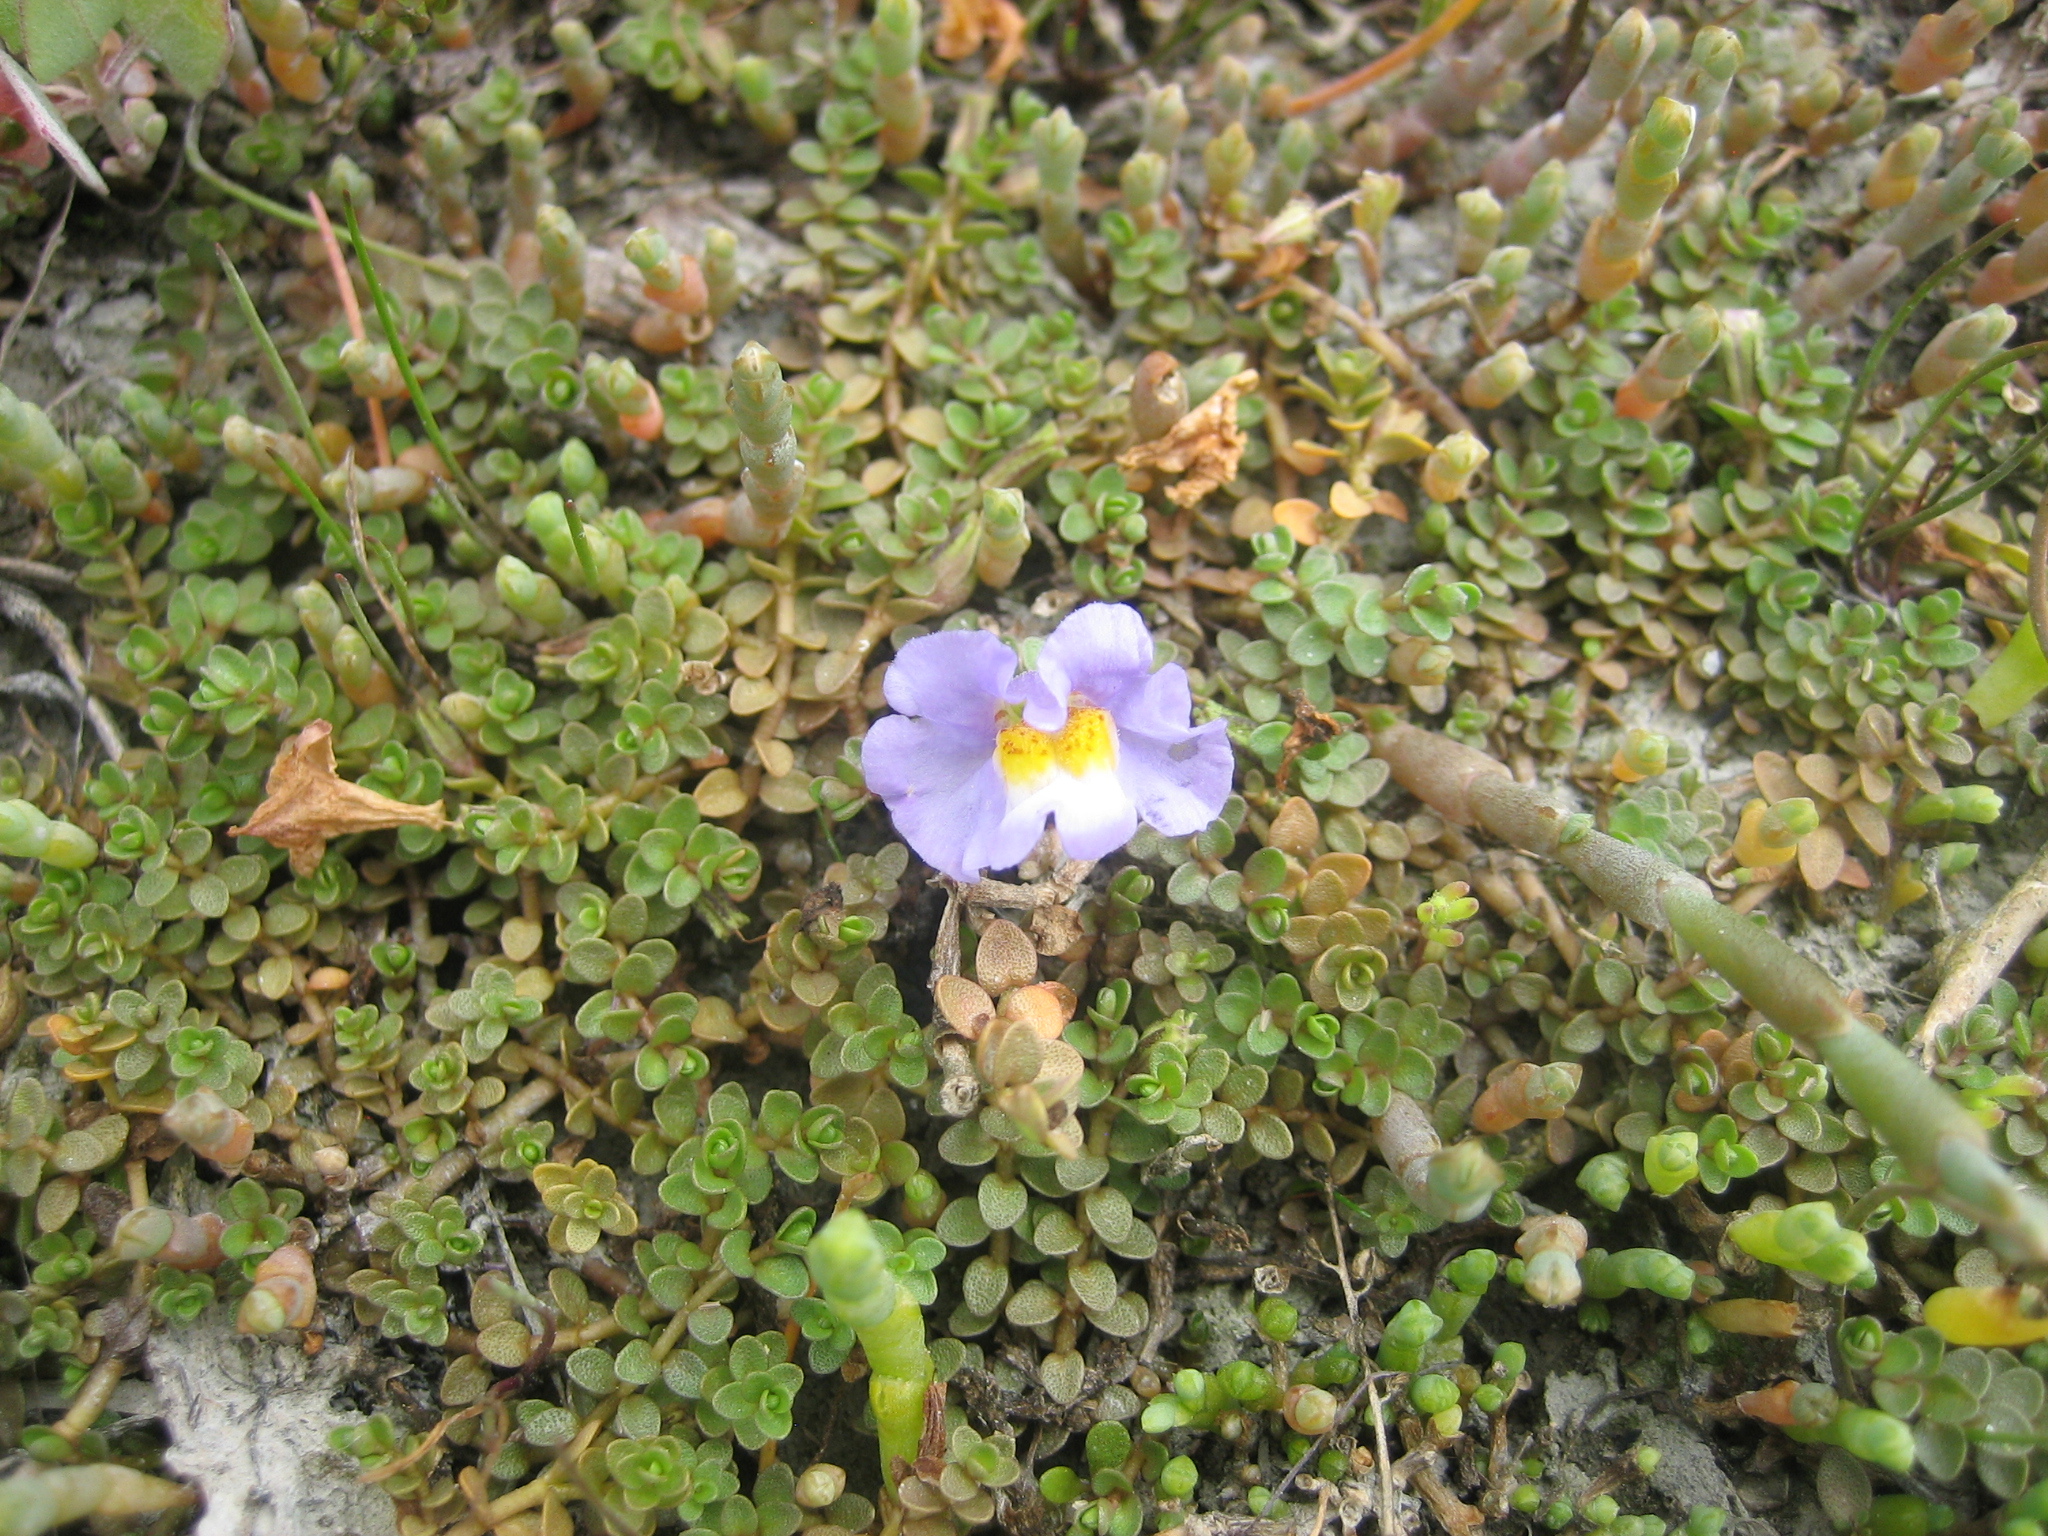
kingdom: Plantae
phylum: Tracheophyta
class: Magnoliopsida
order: Lamiales
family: Phrymaceae
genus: Thyridia
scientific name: Thyridia repens
